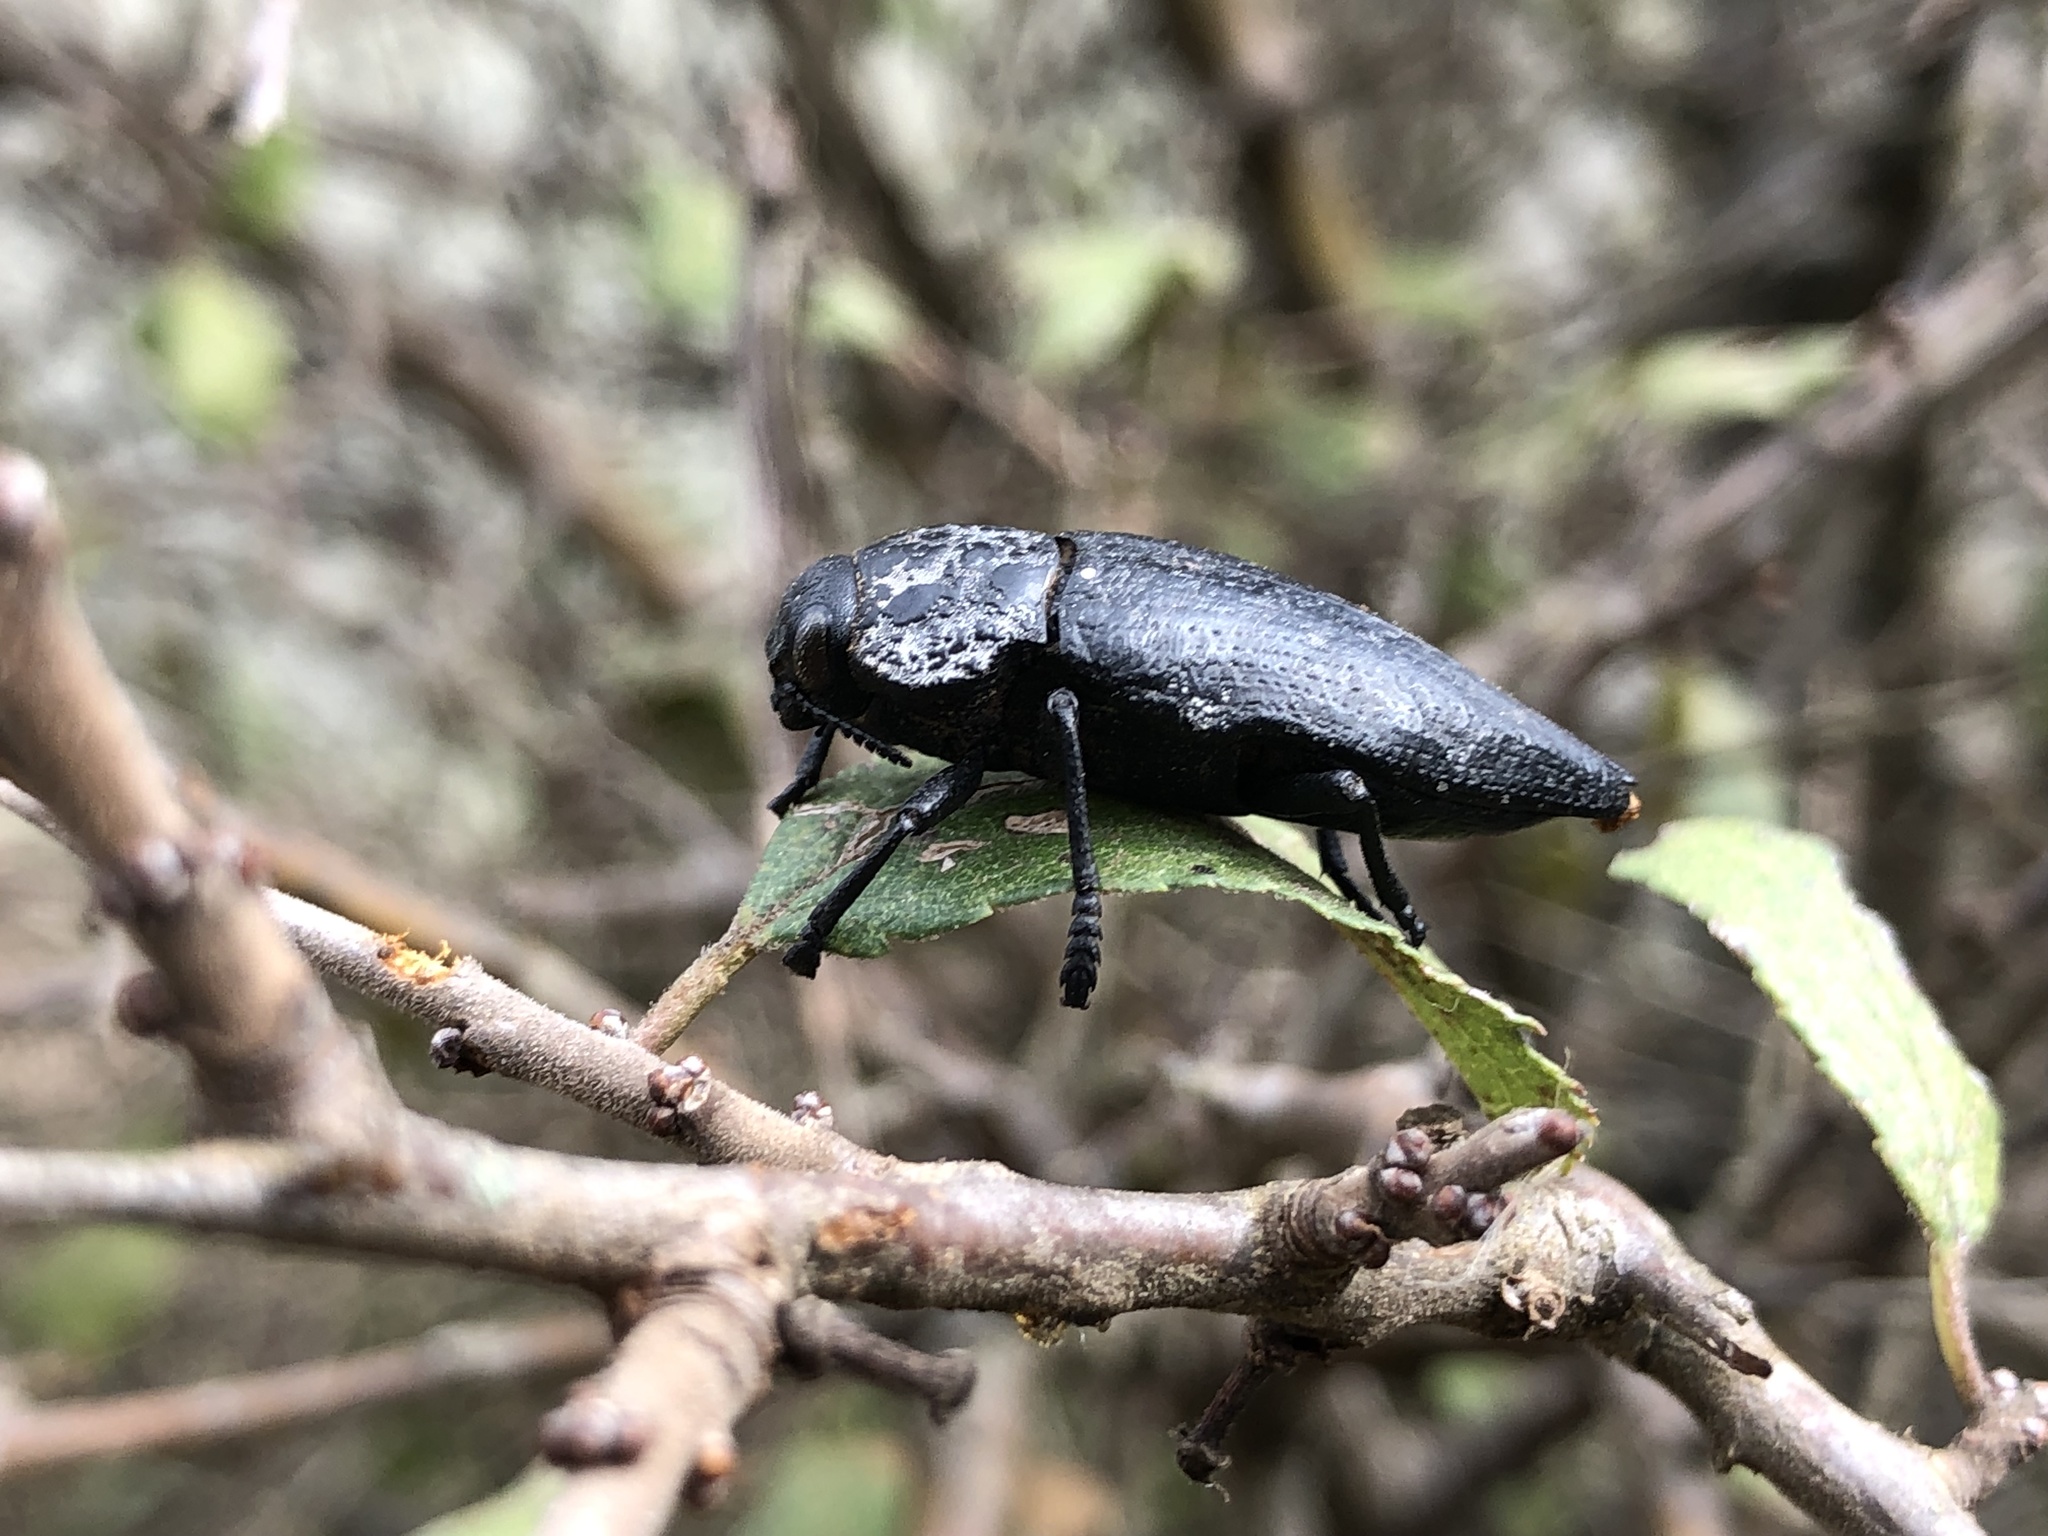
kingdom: Animalia
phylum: Arthropoda
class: Insecta
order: Coleoptera
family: Buprestidae
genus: Capnodis
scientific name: Capnodis tenebrionis
